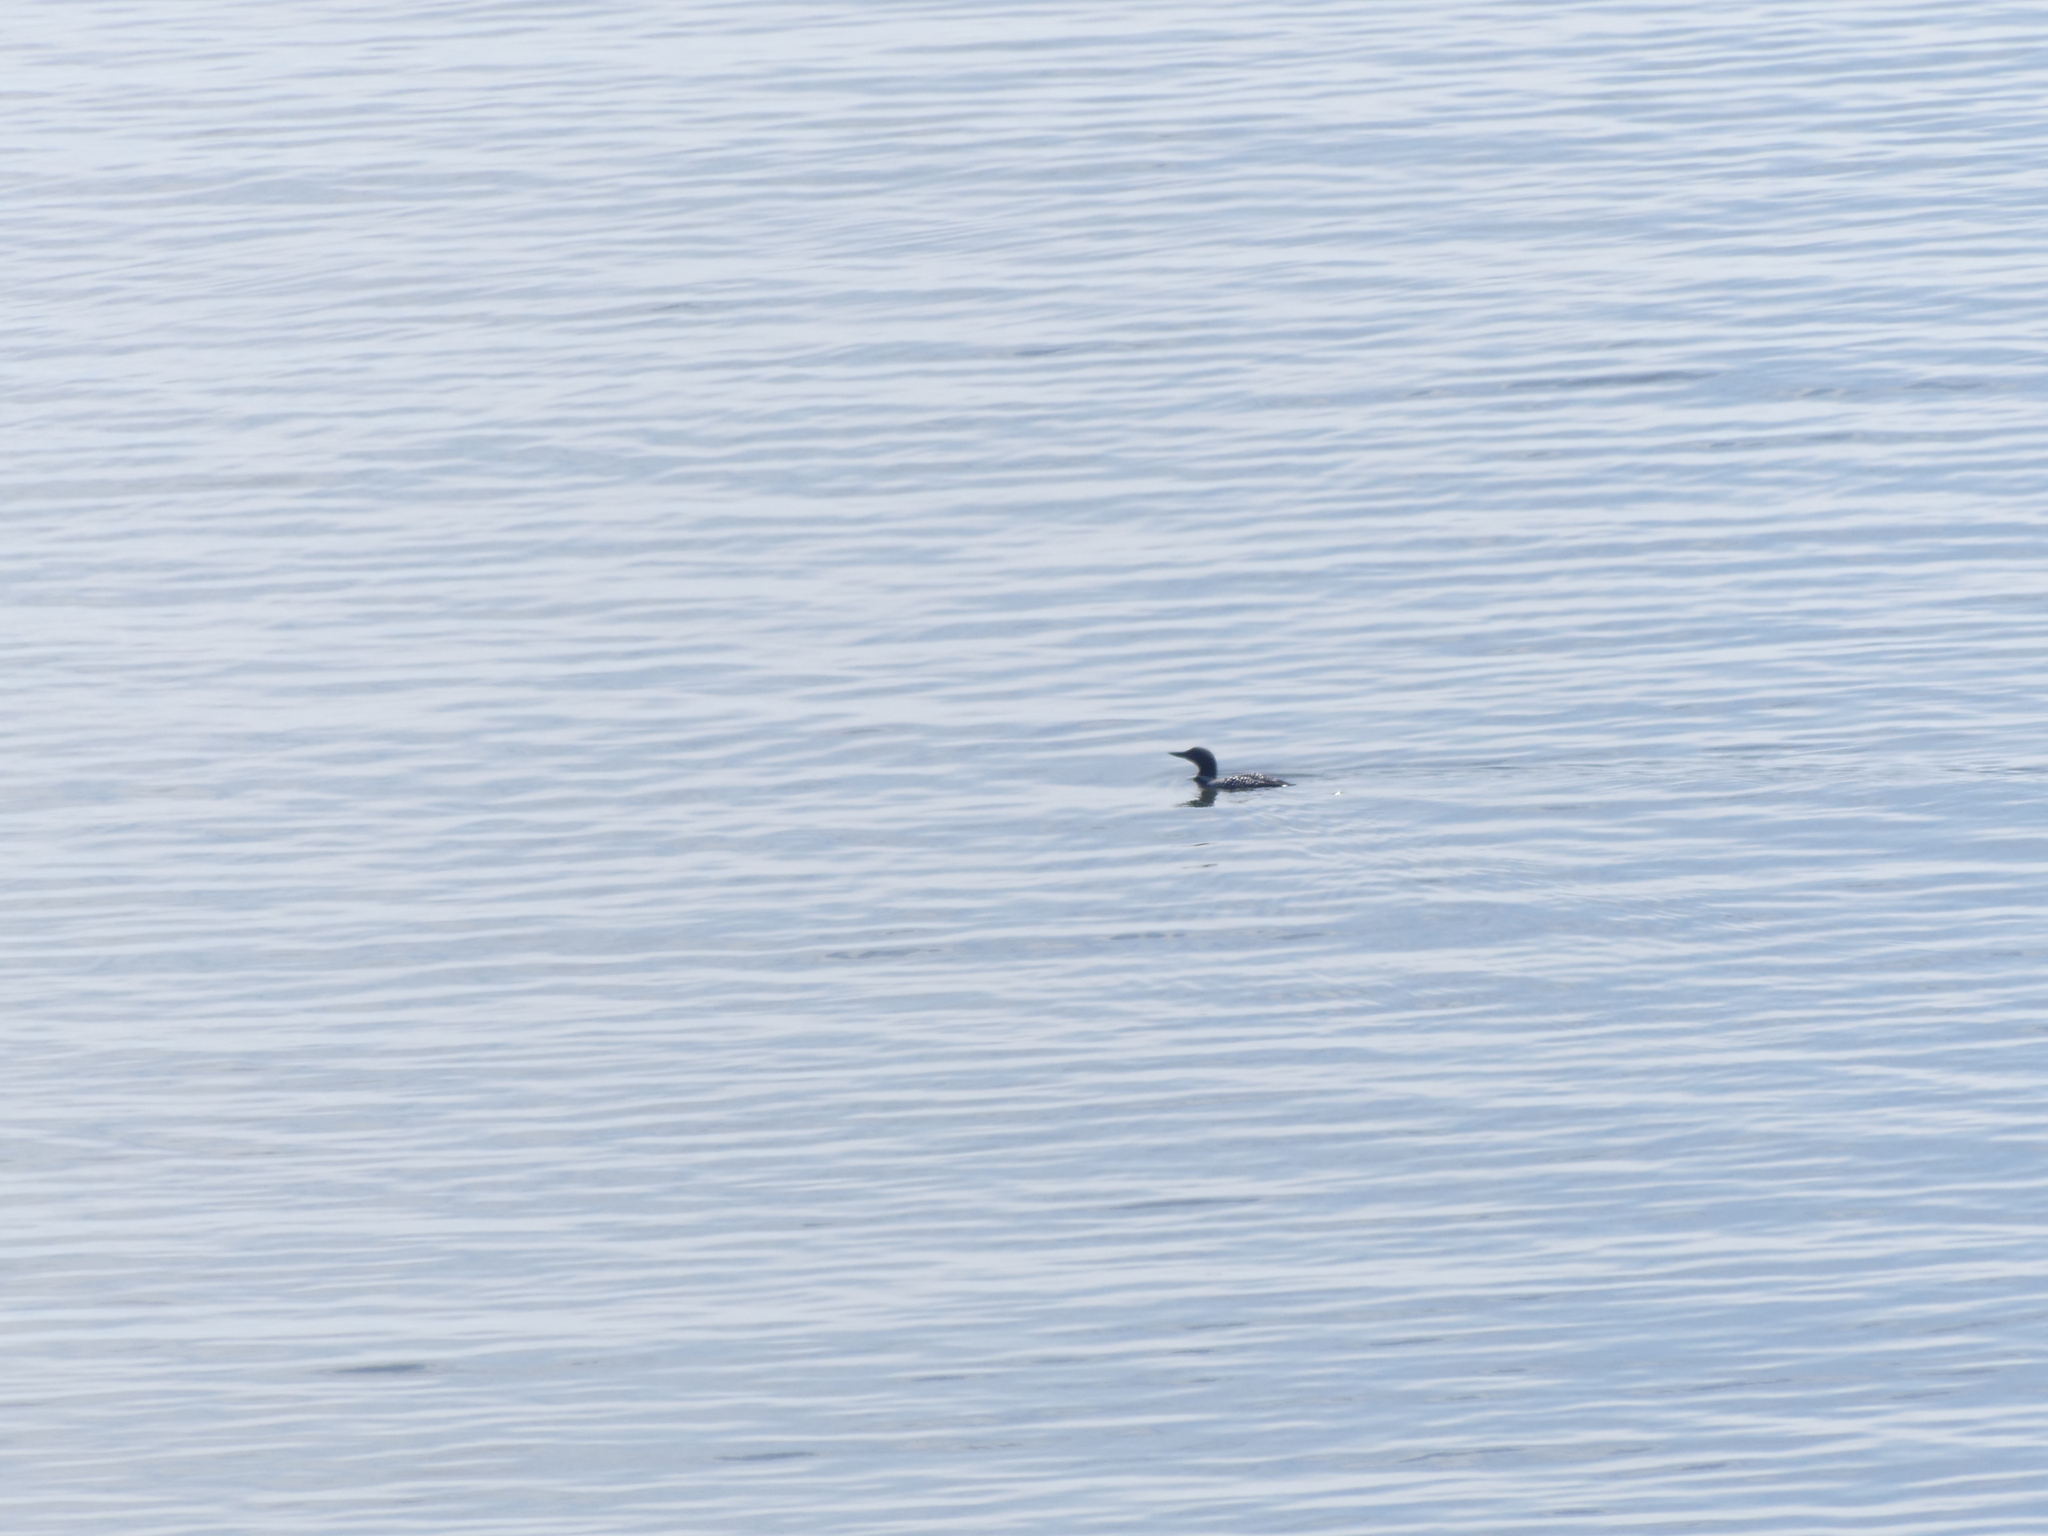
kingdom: Animalia
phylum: Chordata
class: Aves
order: Gaviiformes
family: Gaviidae
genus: Gavia
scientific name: Gavia immer
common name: Common loon
